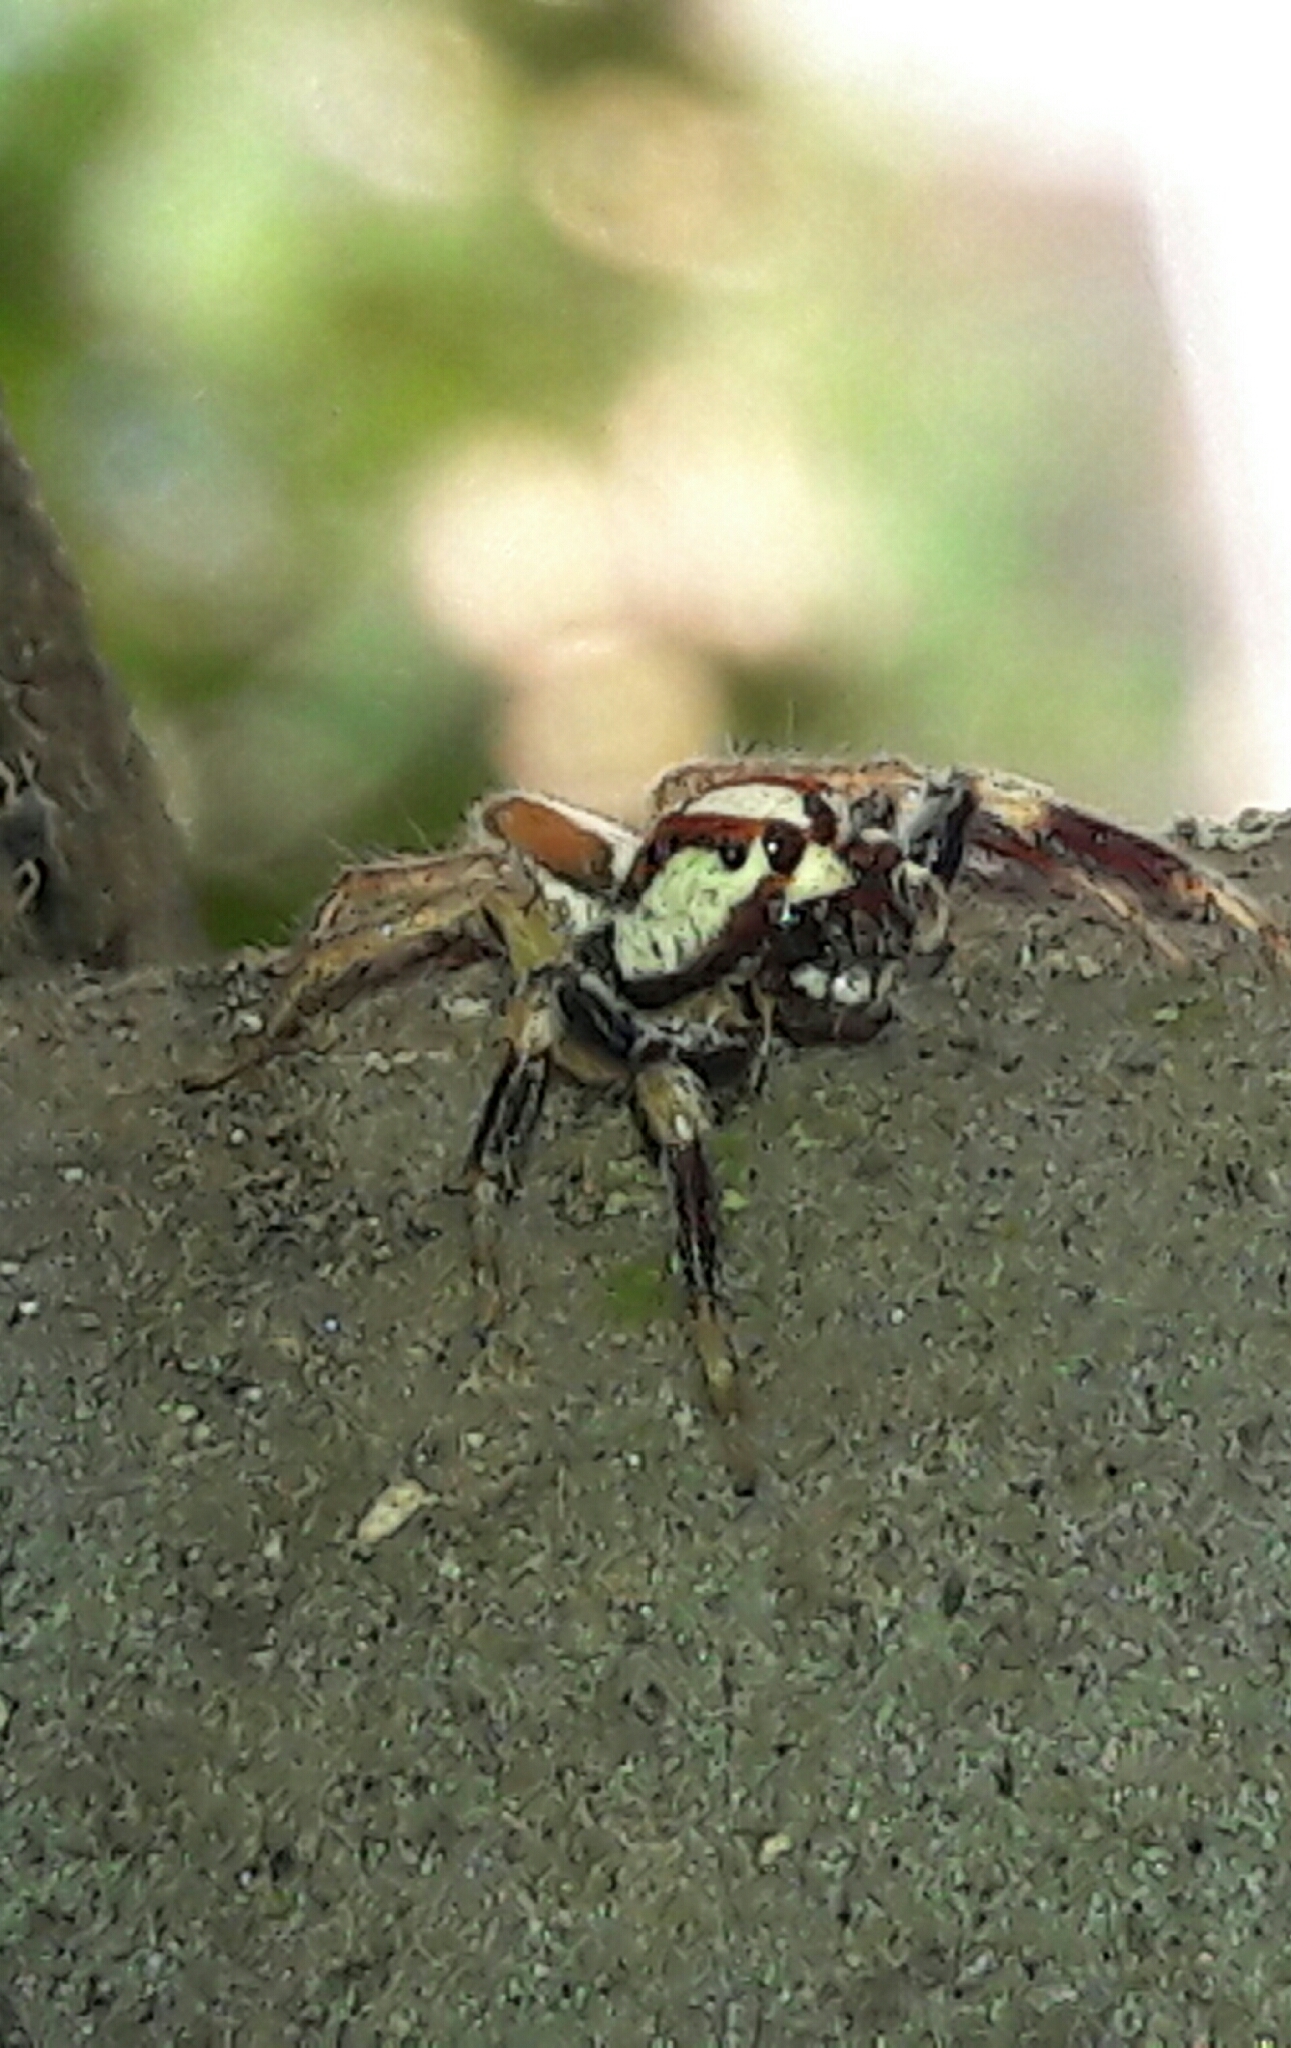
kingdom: Animalia
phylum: Arthropoda
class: Arachnida
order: Araneae
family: Salticidae
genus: Chira
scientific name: Chira guianensis
